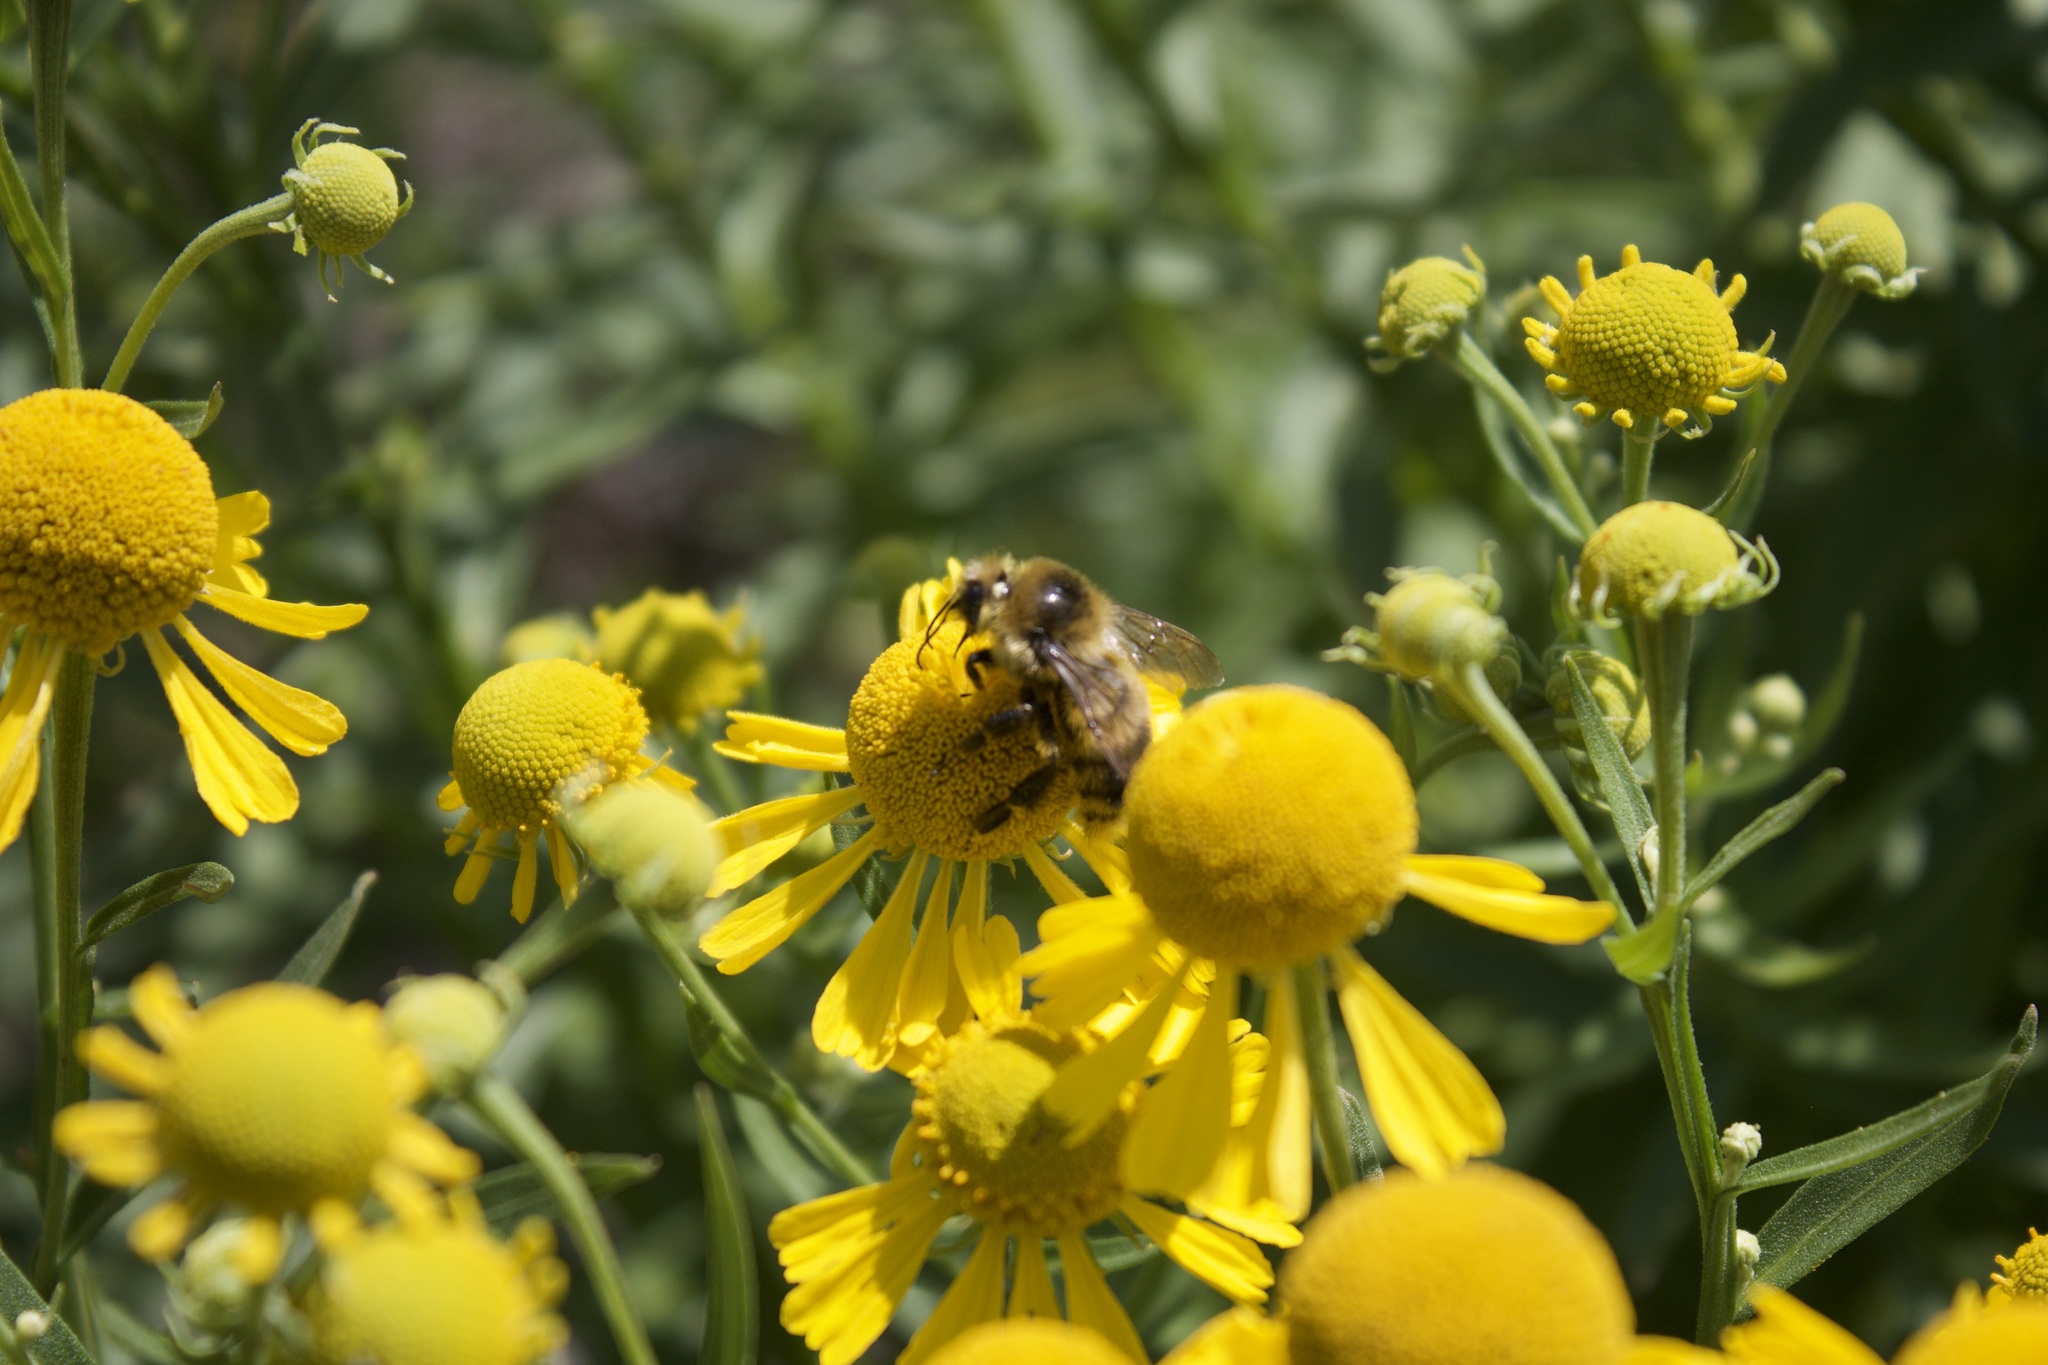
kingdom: Animalia
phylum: Arthropoda
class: Insecta
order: Hymenoptera
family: Apidae
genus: Bombus
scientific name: Bombus rufocinctus
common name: Red-belted bumble bee
